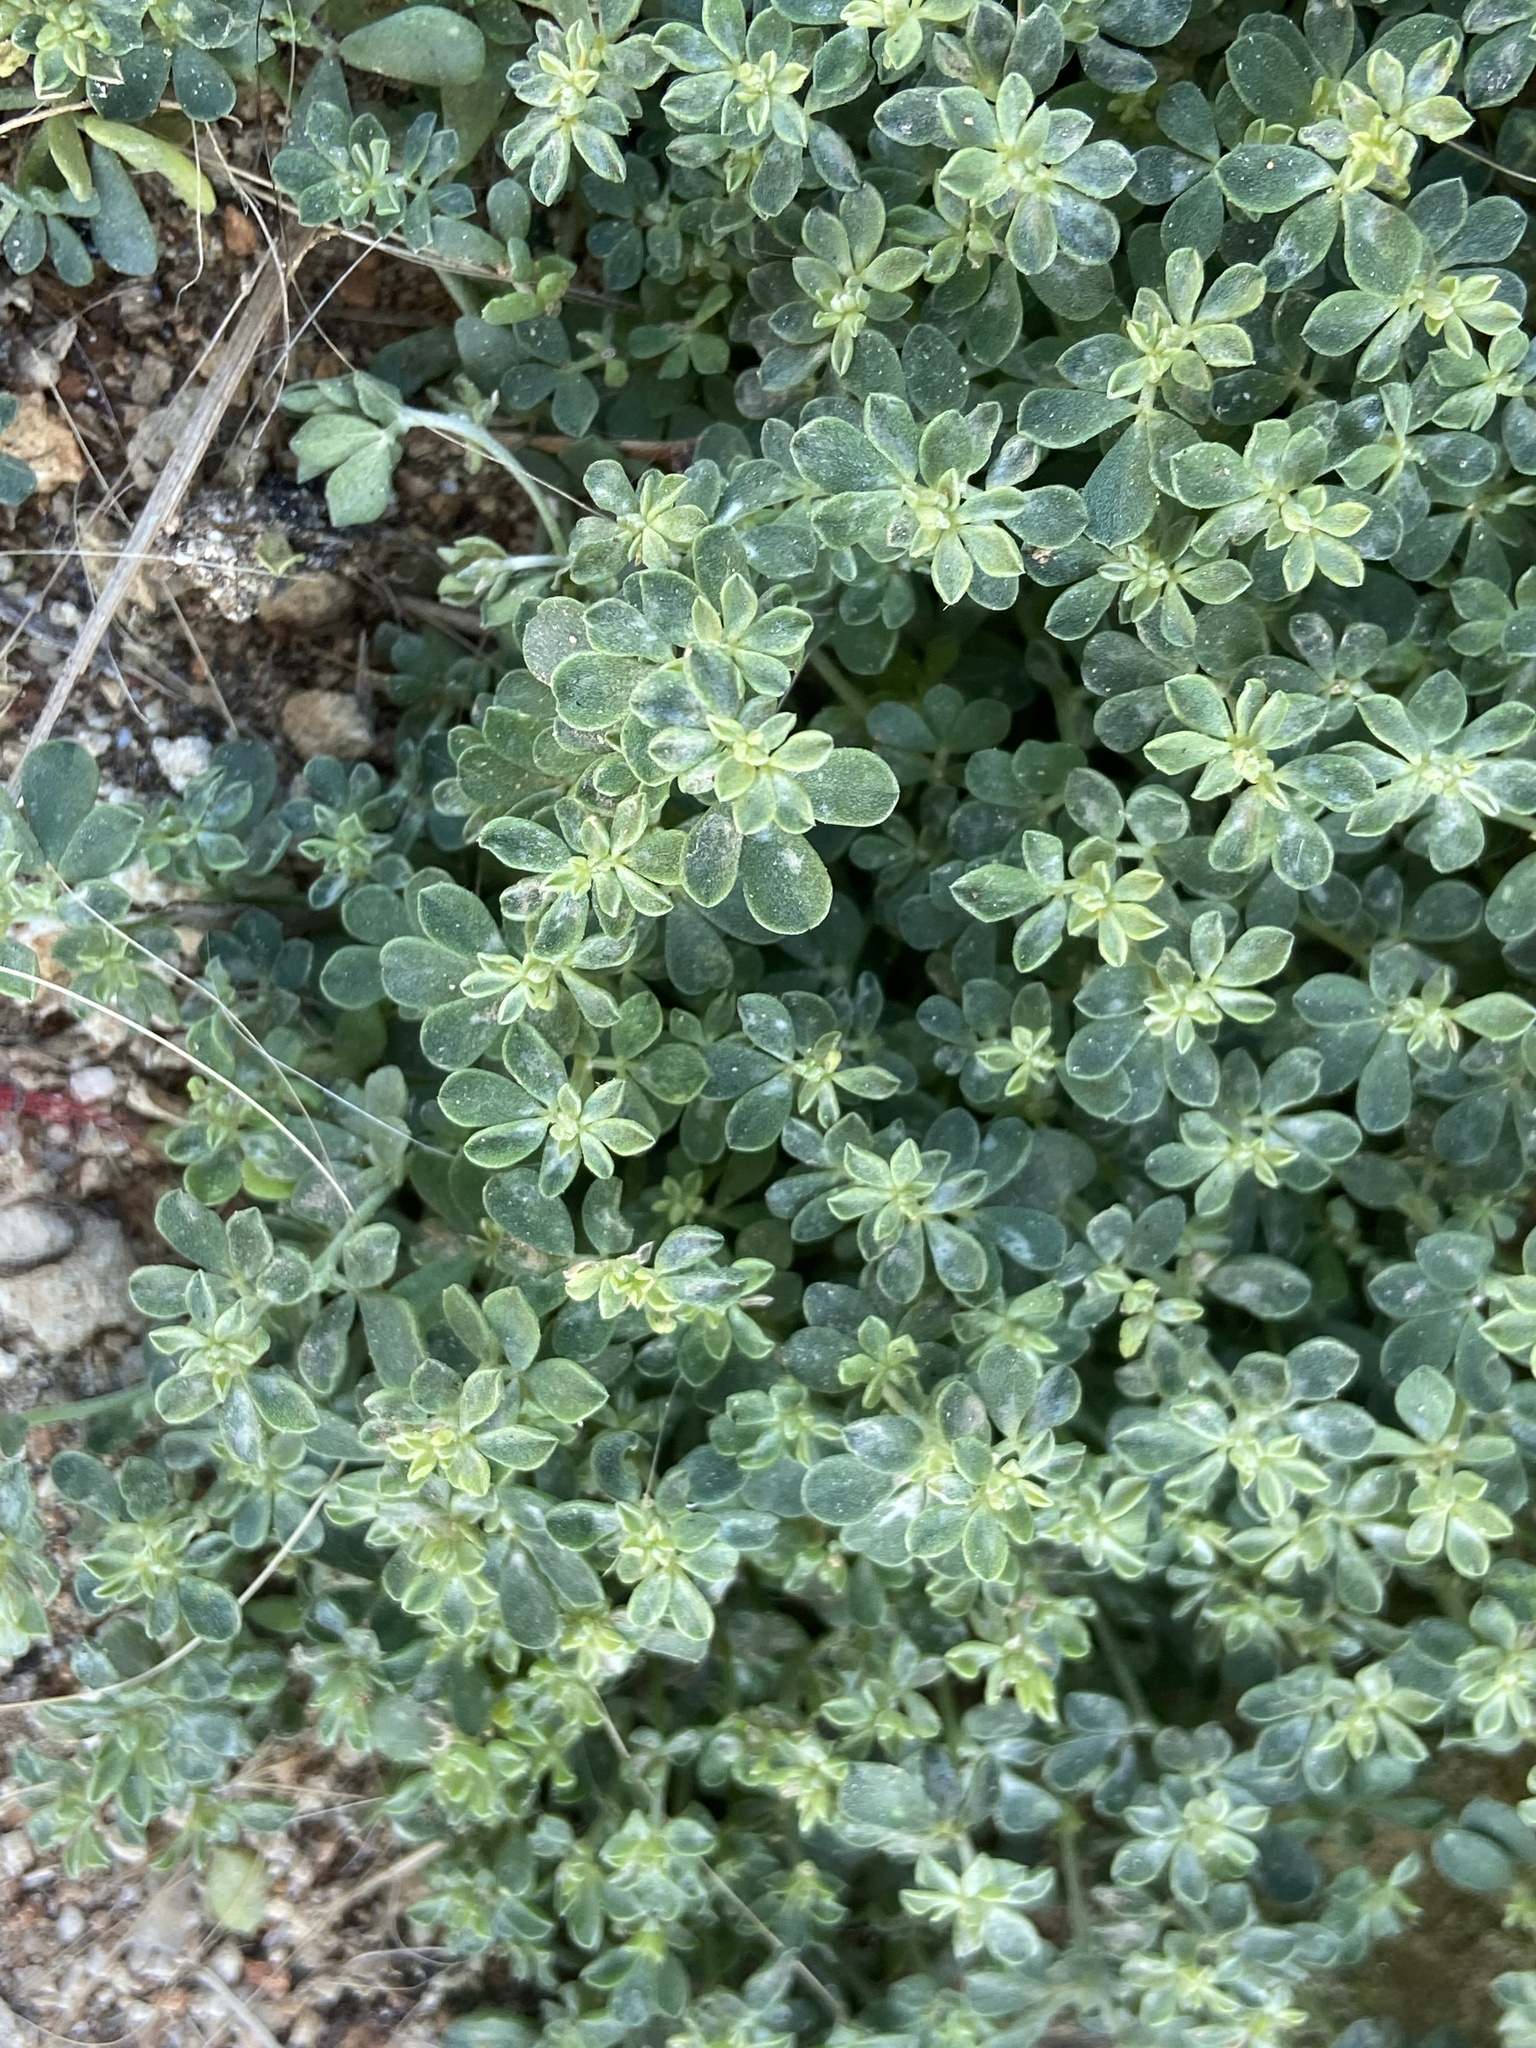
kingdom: Plantae
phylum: Tracheophyta
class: Magnoliopsida
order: Fabales
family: Fabaceae
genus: Lotus
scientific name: Lotus cytisoides
